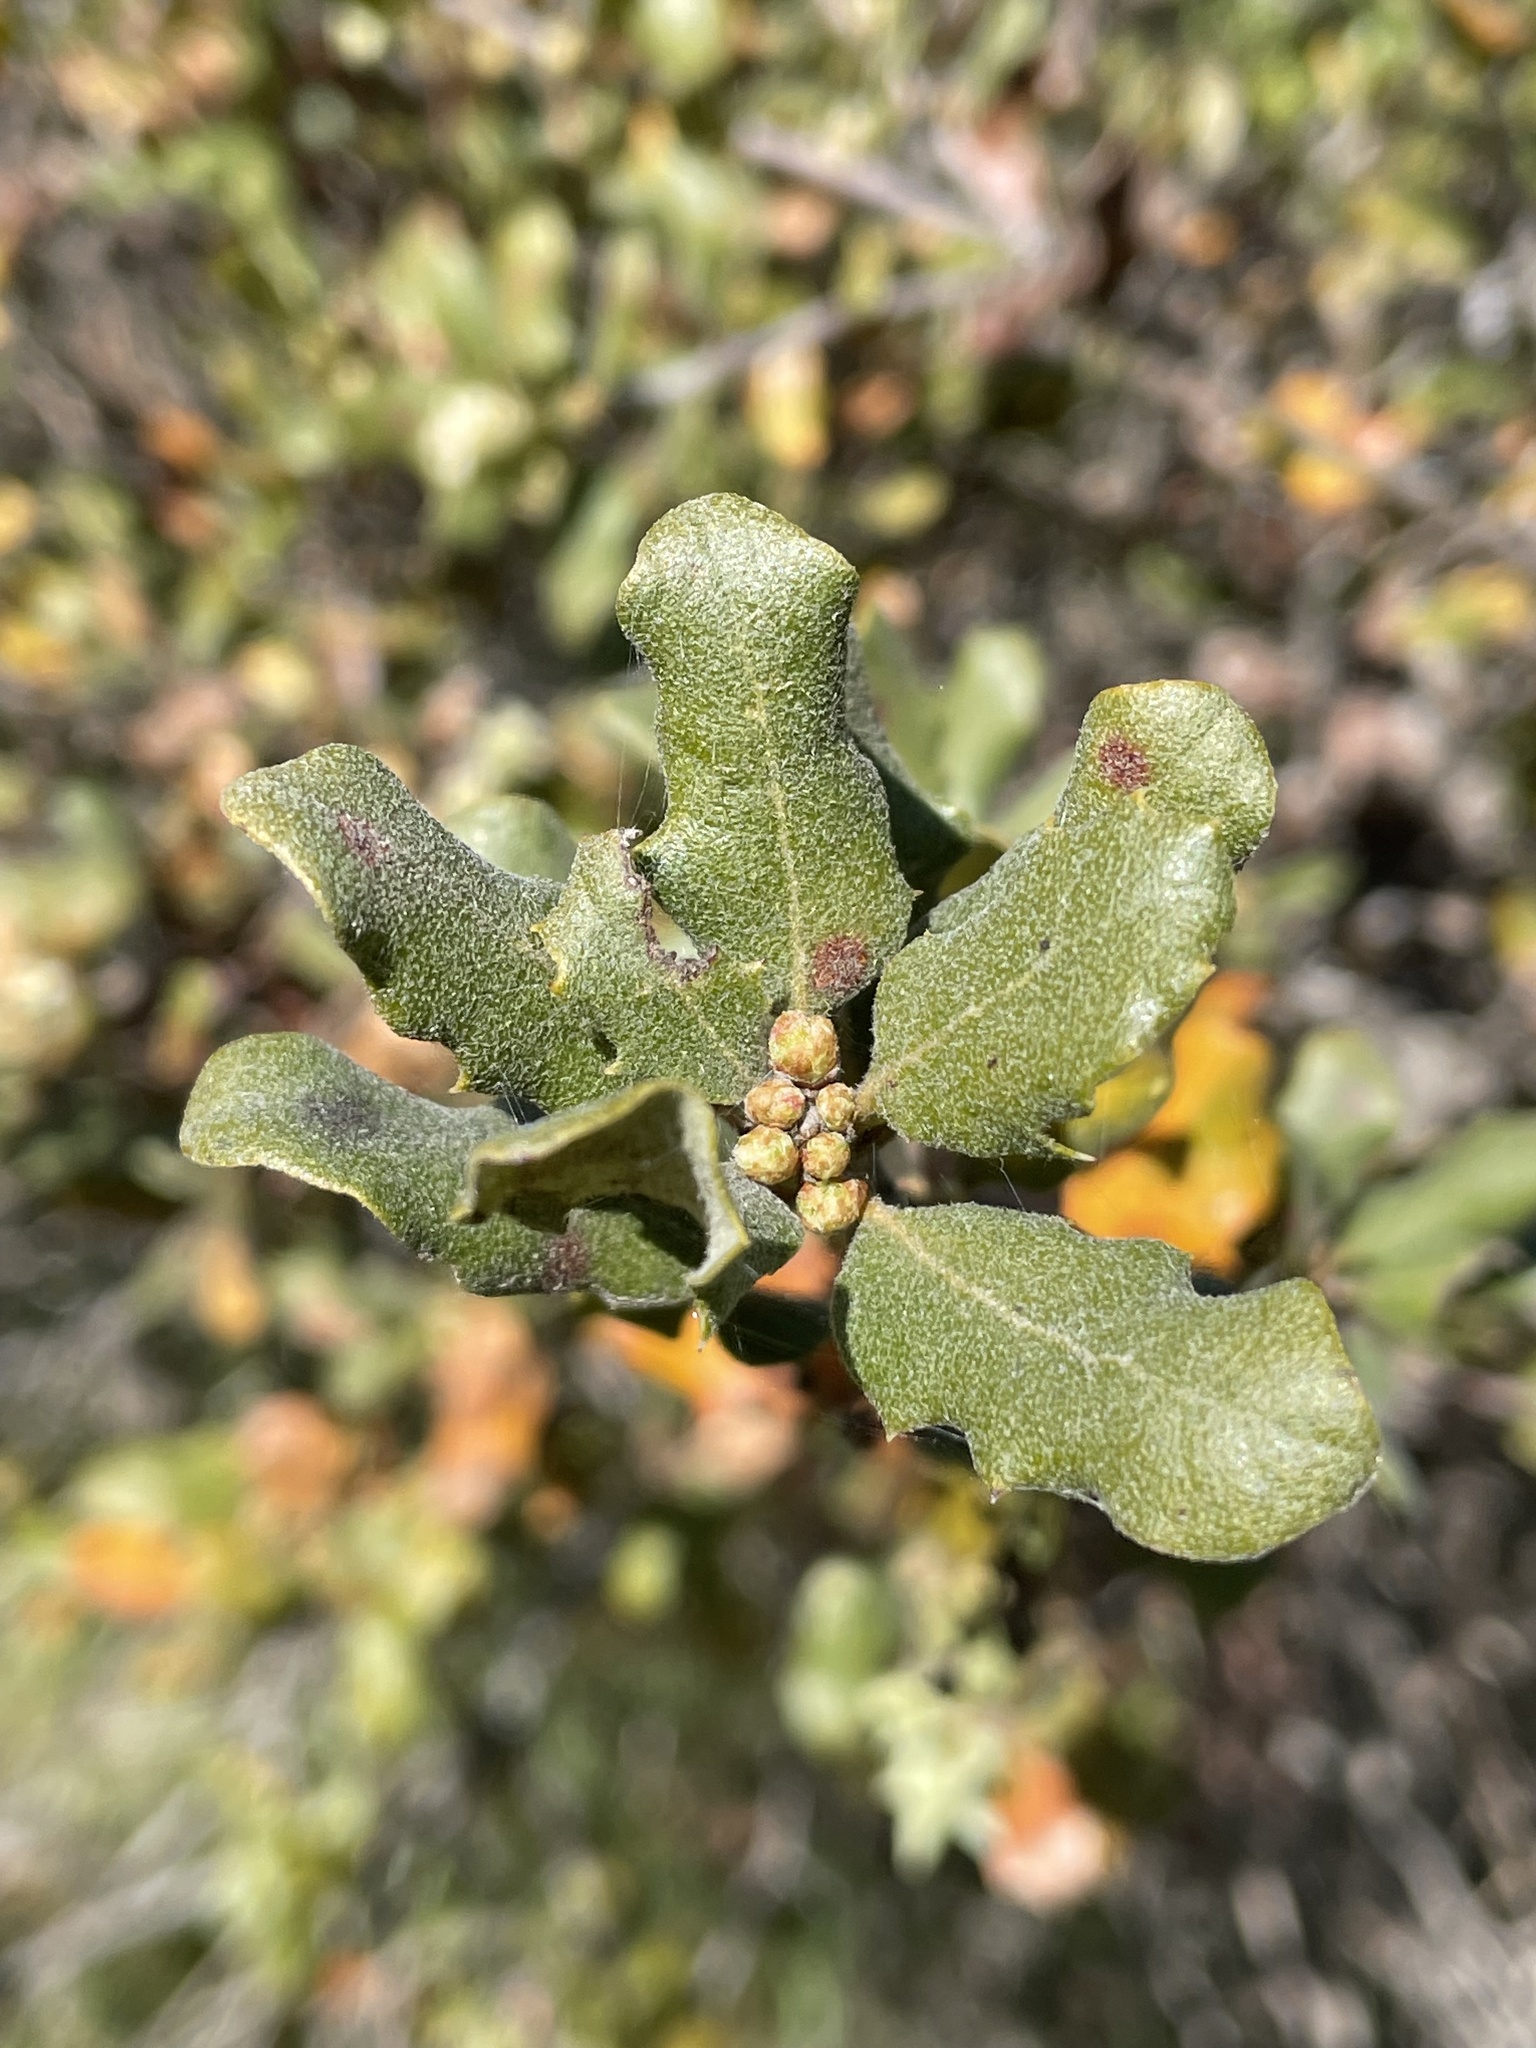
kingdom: Plantae
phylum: Tracheophyta
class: Magnoliopsida
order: Fagales
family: Fagaceae
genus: Quercus
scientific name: Quercus durata
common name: Leather oak
